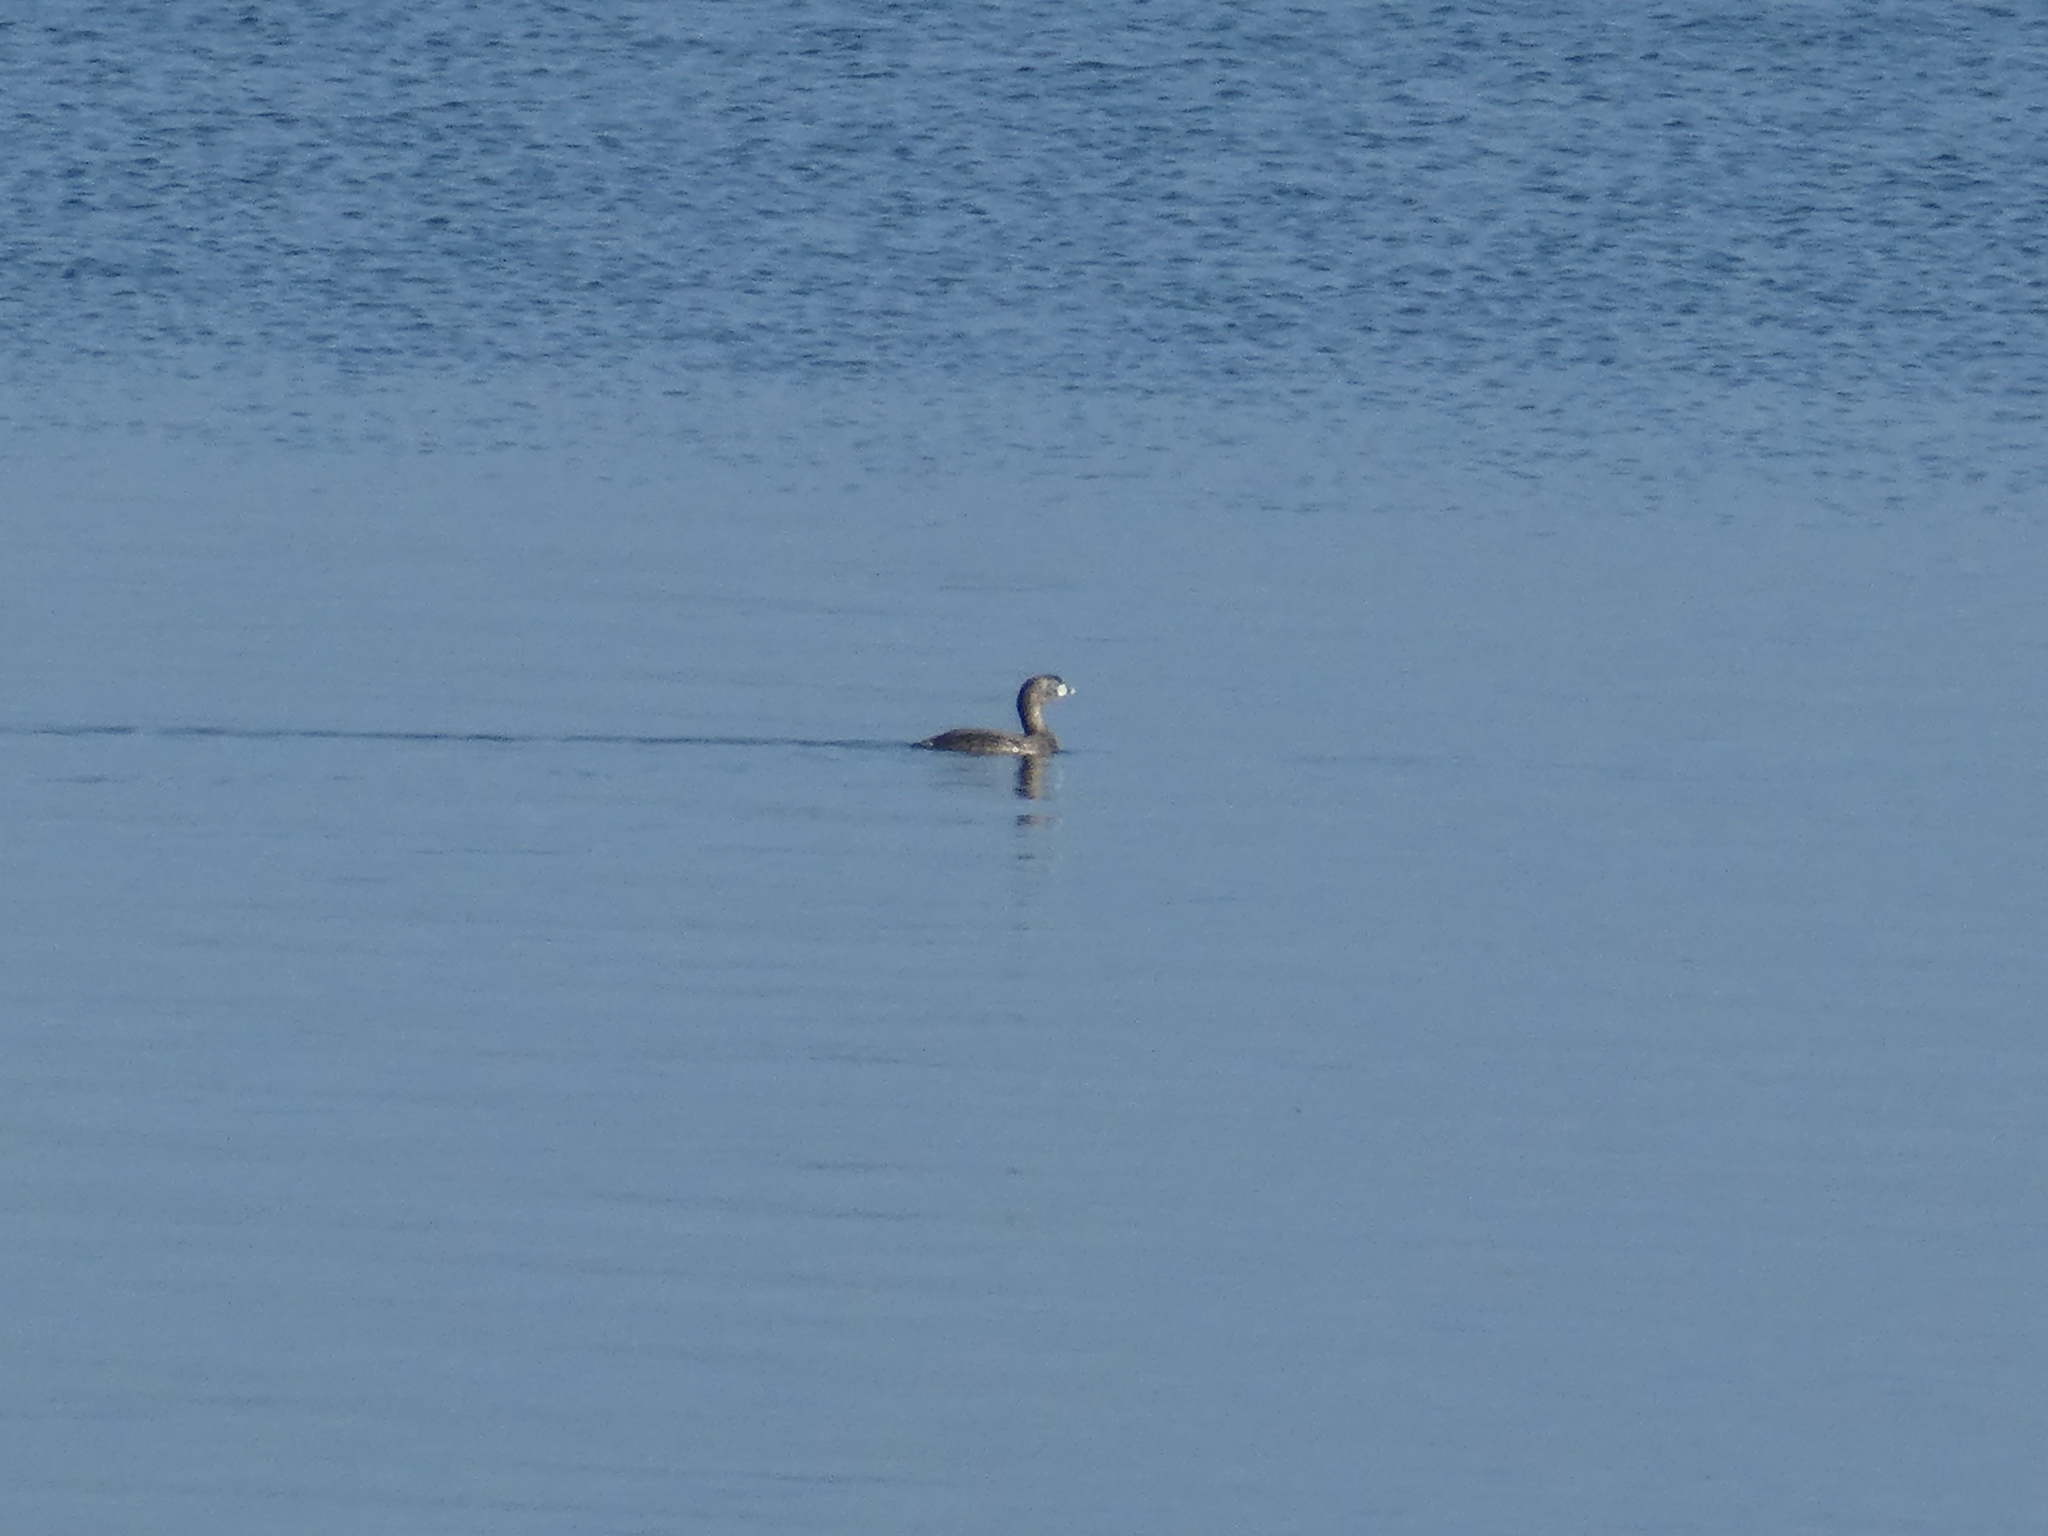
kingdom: Animalia
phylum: Chordata
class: Aves
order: Podicipediformes
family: Podicipedidae
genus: Podilymbus
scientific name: Podilymbus podiceps
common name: Pied-billed grebe
